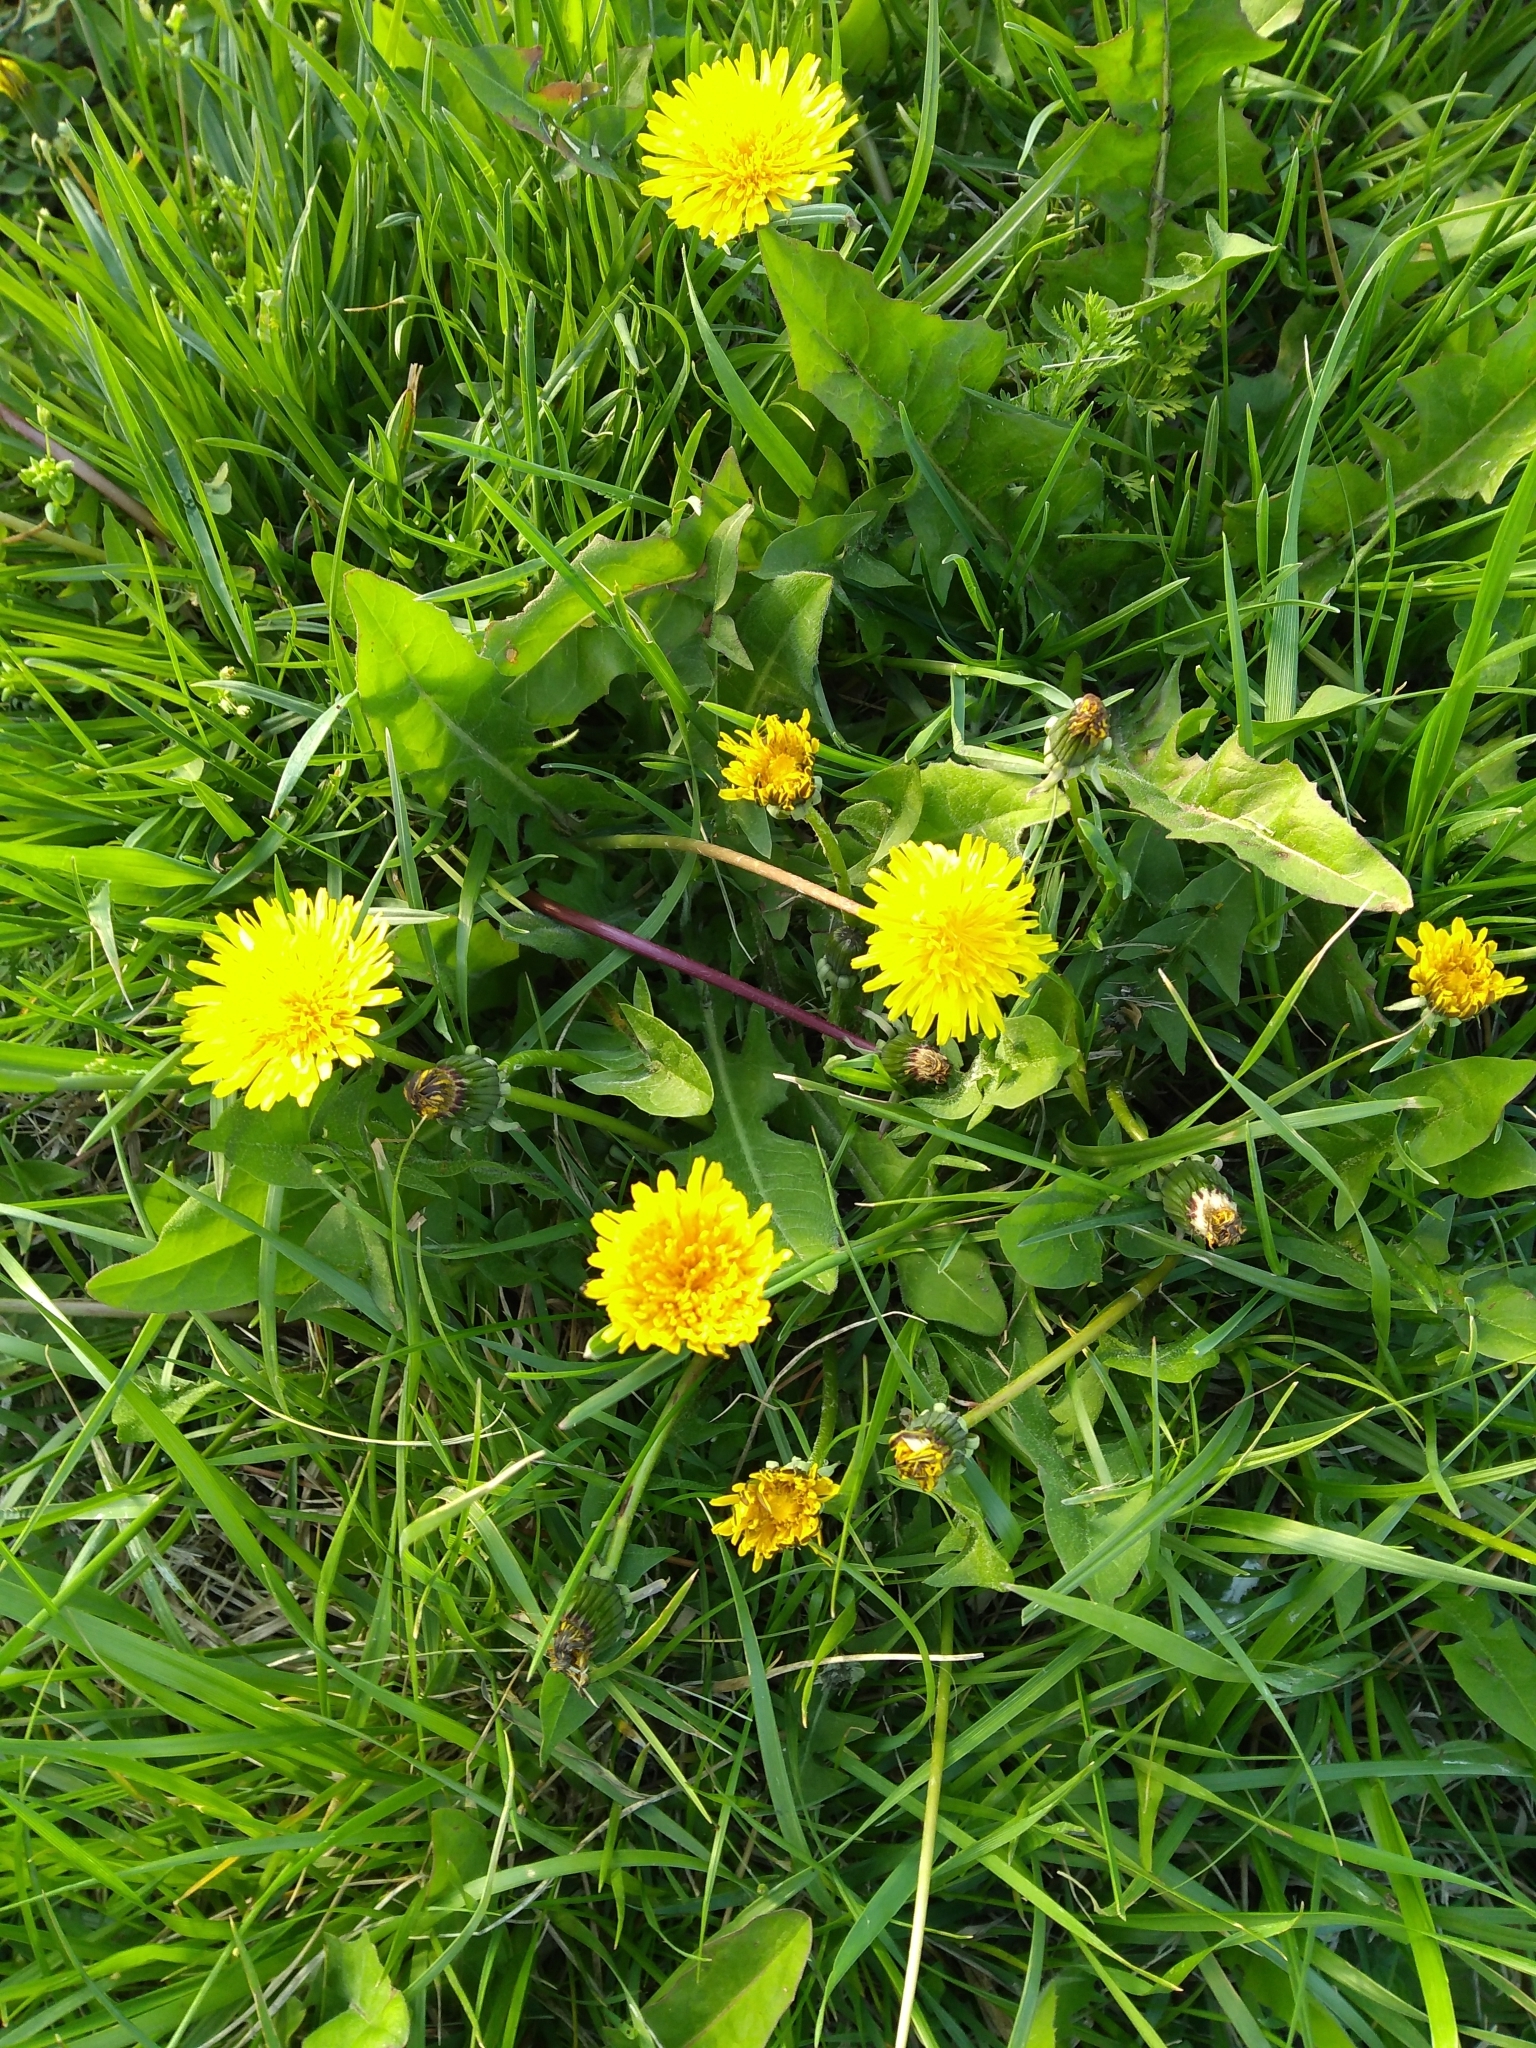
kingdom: Plantae
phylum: Tracheophyta
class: Magnoliopsida
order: Asterales
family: Asteraceae
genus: Taraxacum
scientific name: Taraxacum officinale
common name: Common dandelion
